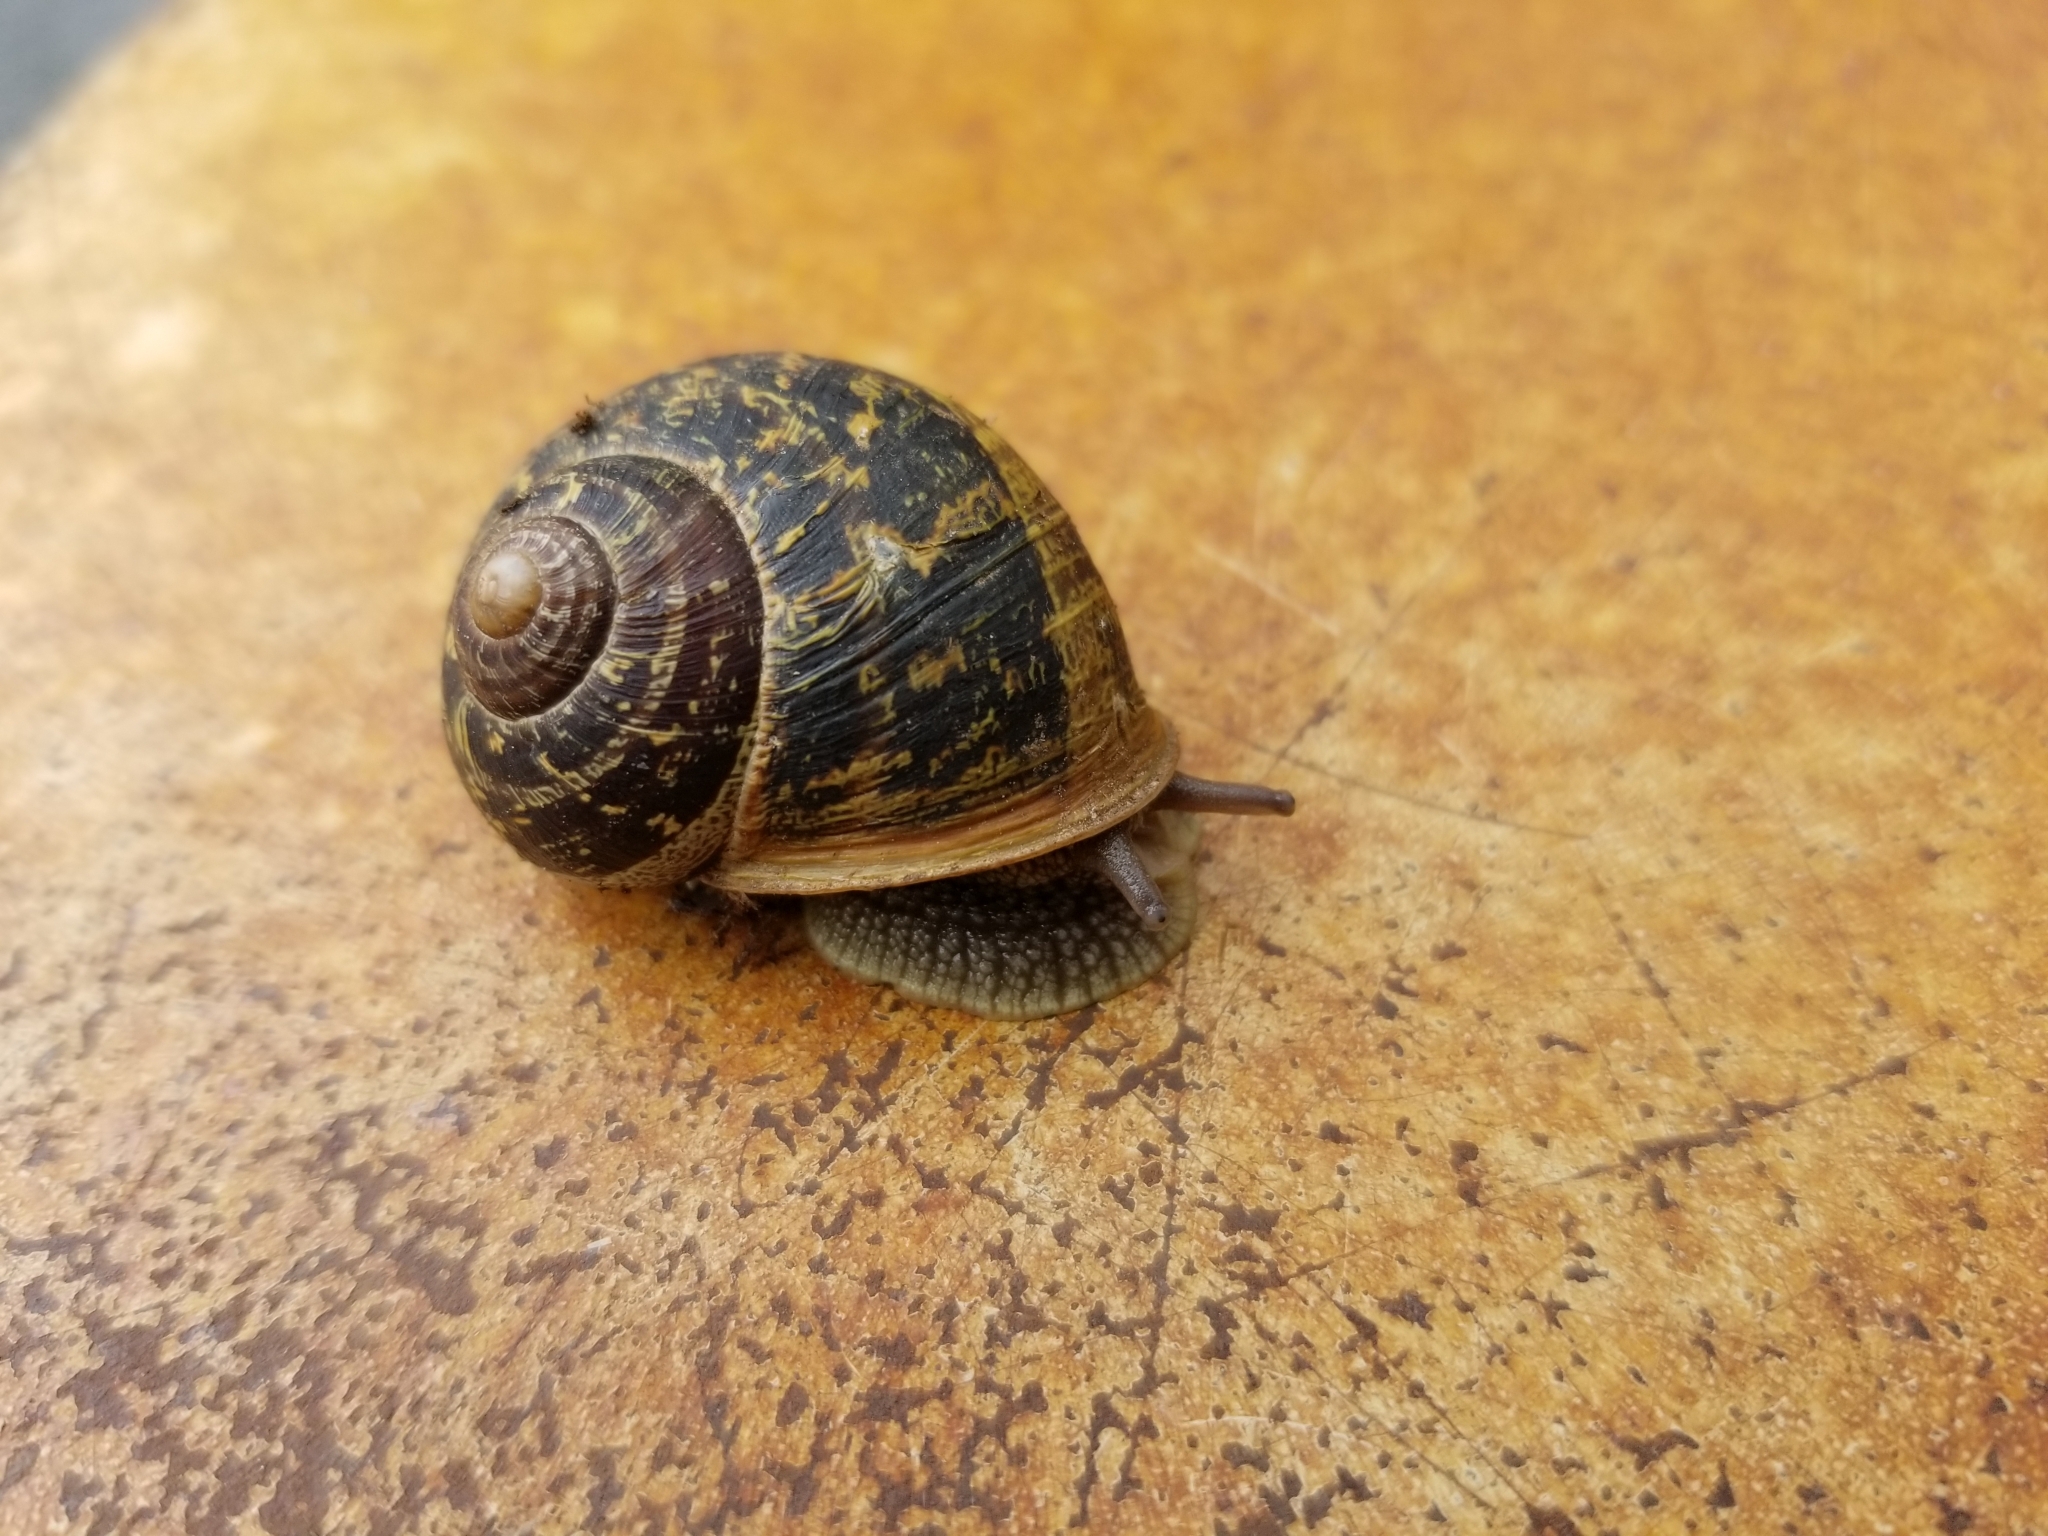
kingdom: Animalia
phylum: Mollusca
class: Gastropoda
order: Stylommatophora
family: Helicidae
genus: Cornu
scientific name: Cornu aspersum
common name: Brown garden snail
